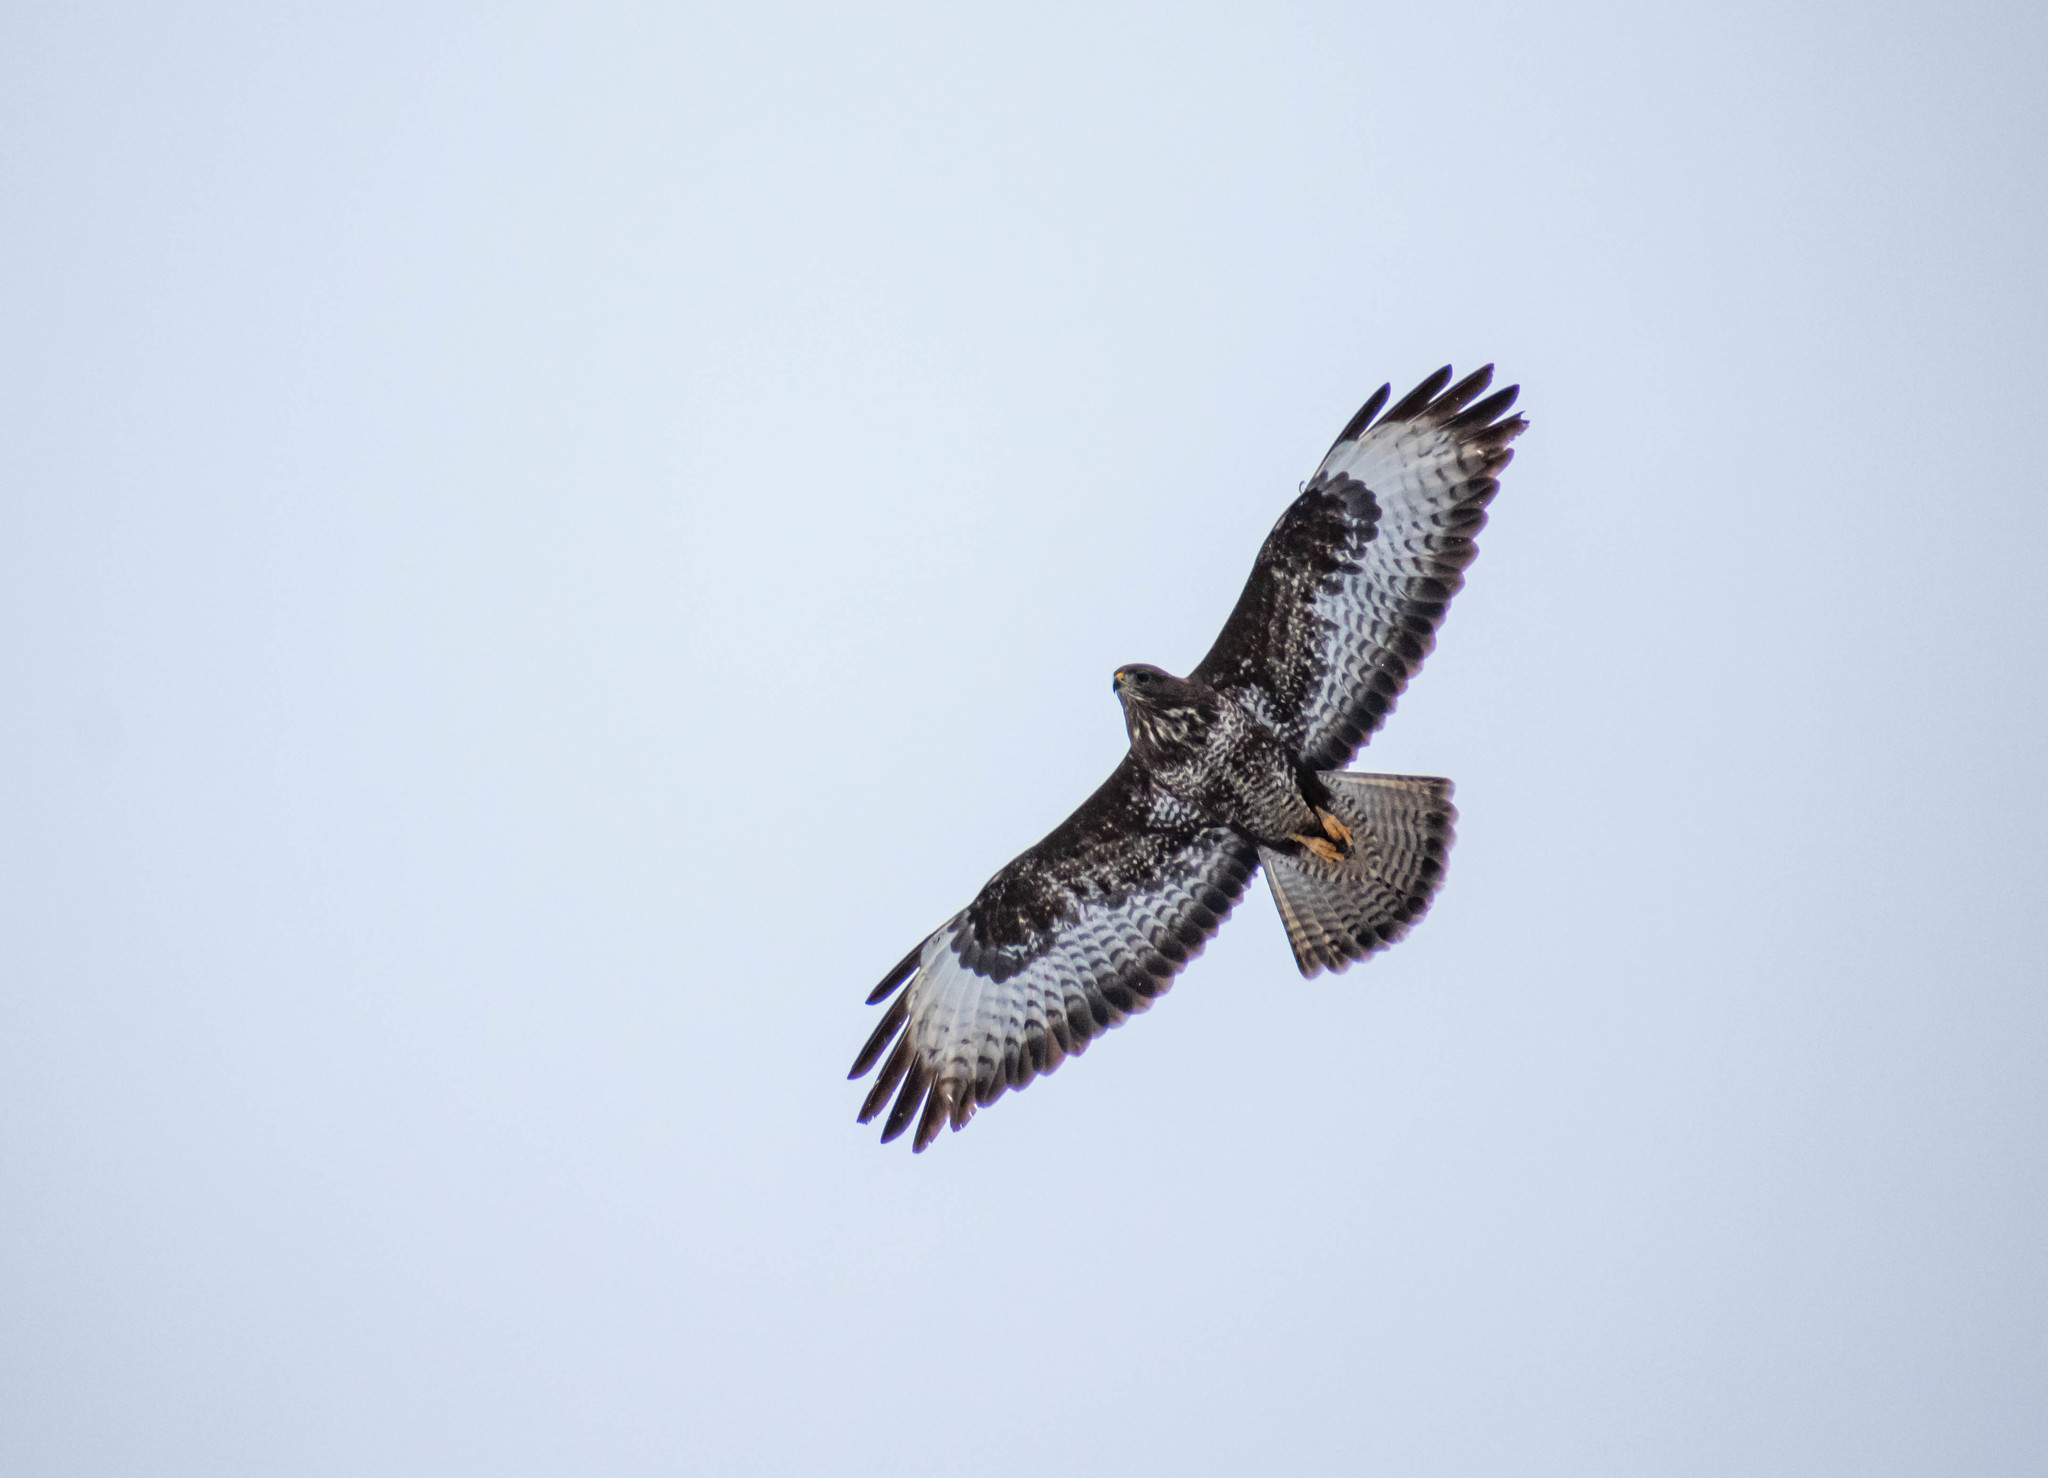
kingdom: Animalia
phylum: Chordata
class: Aves
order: Accipitriformes
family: Accipitridae
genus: Buteo
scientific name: Buteo buteo
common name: Common buzzard
